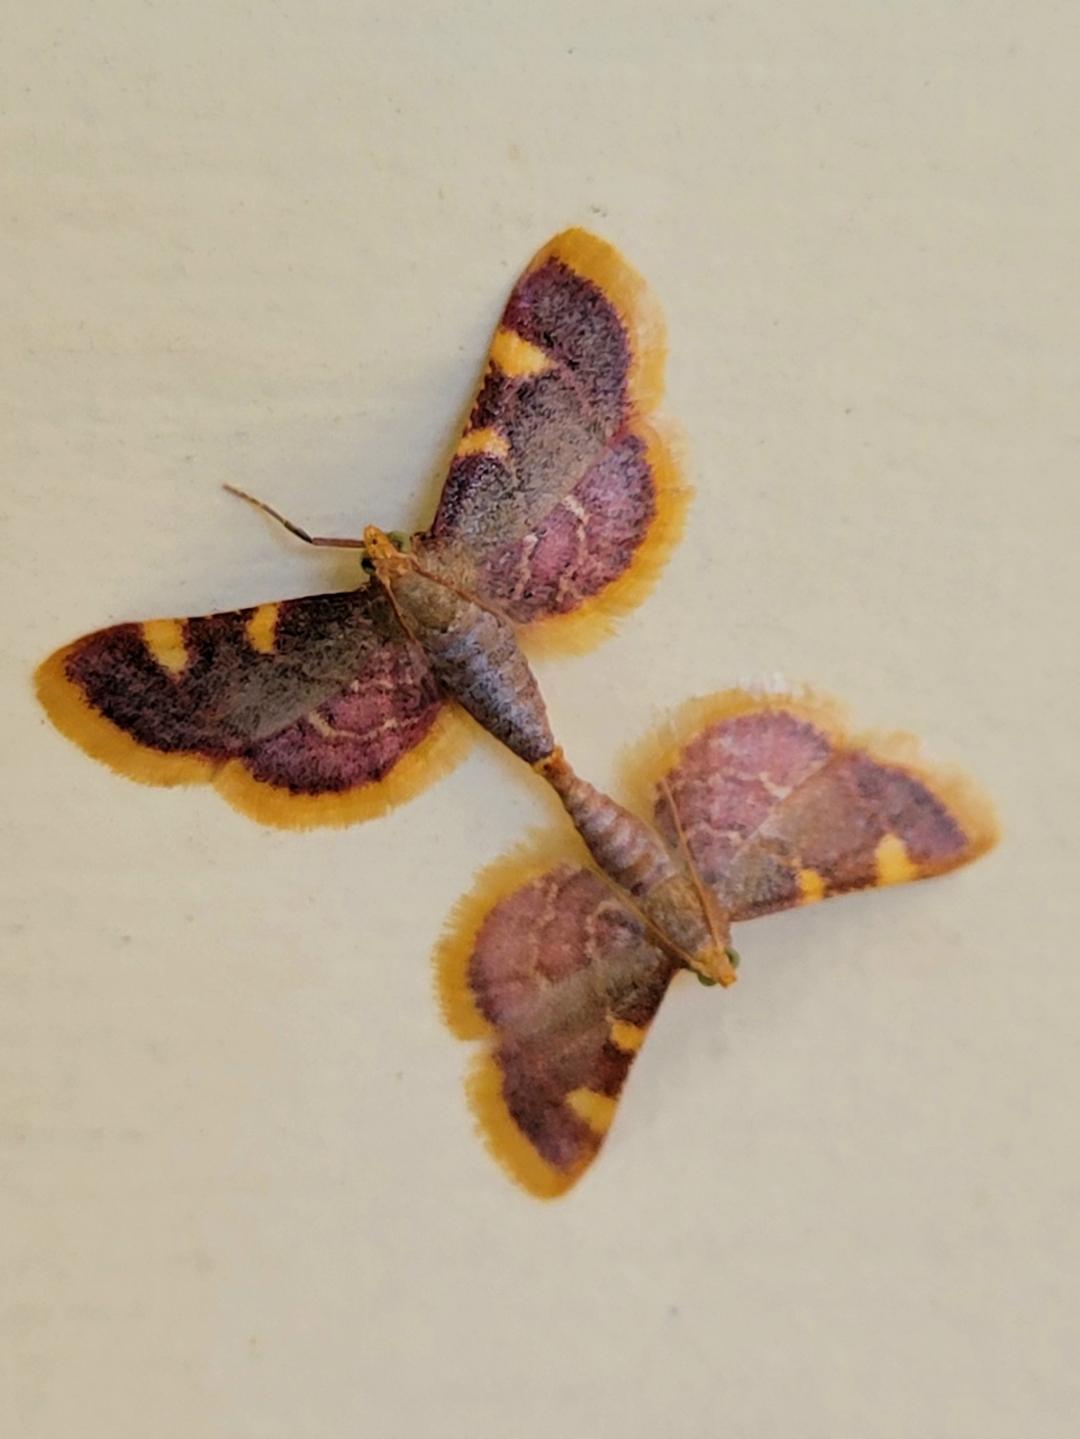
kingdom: Animalia
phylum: Arthropoda
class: Insecta
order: Lepidoptera
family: Pyralidae
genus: Hypsopygia
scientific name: Hypsopygia costalis
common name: Gold triangle
